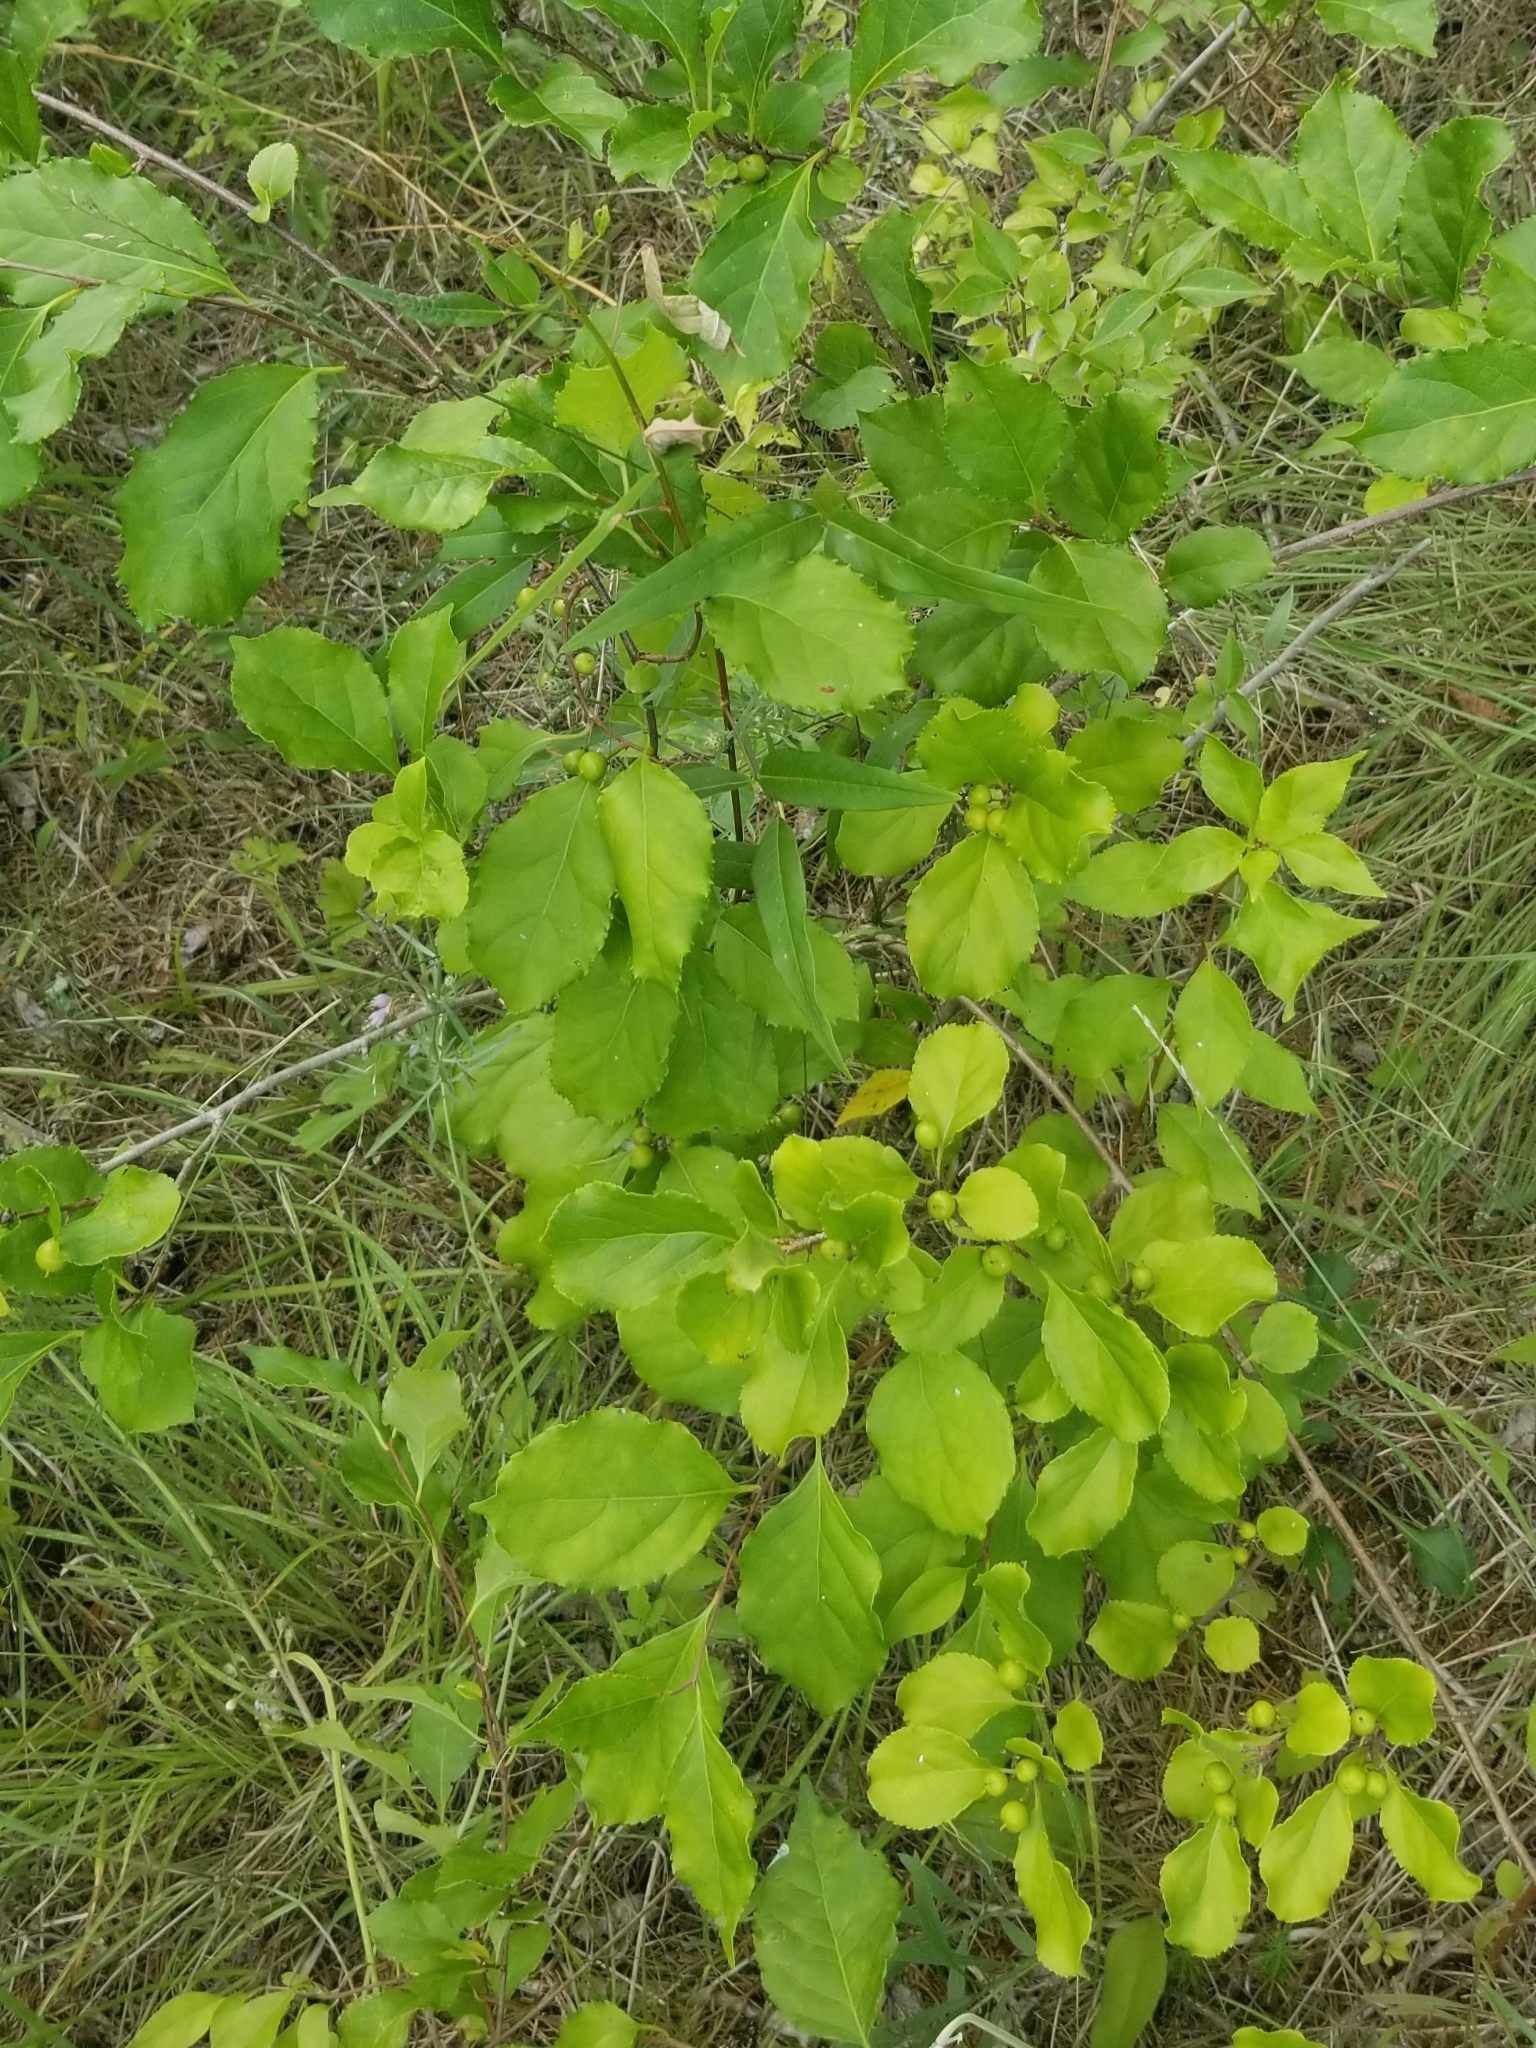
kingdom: Plantae
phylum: Tracheophyta
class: Magnoliopsida
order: Celastrales
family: Celastraceae
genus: Celastrus
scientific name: Celastrus orbiculatus
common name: Oriental bittersweet
